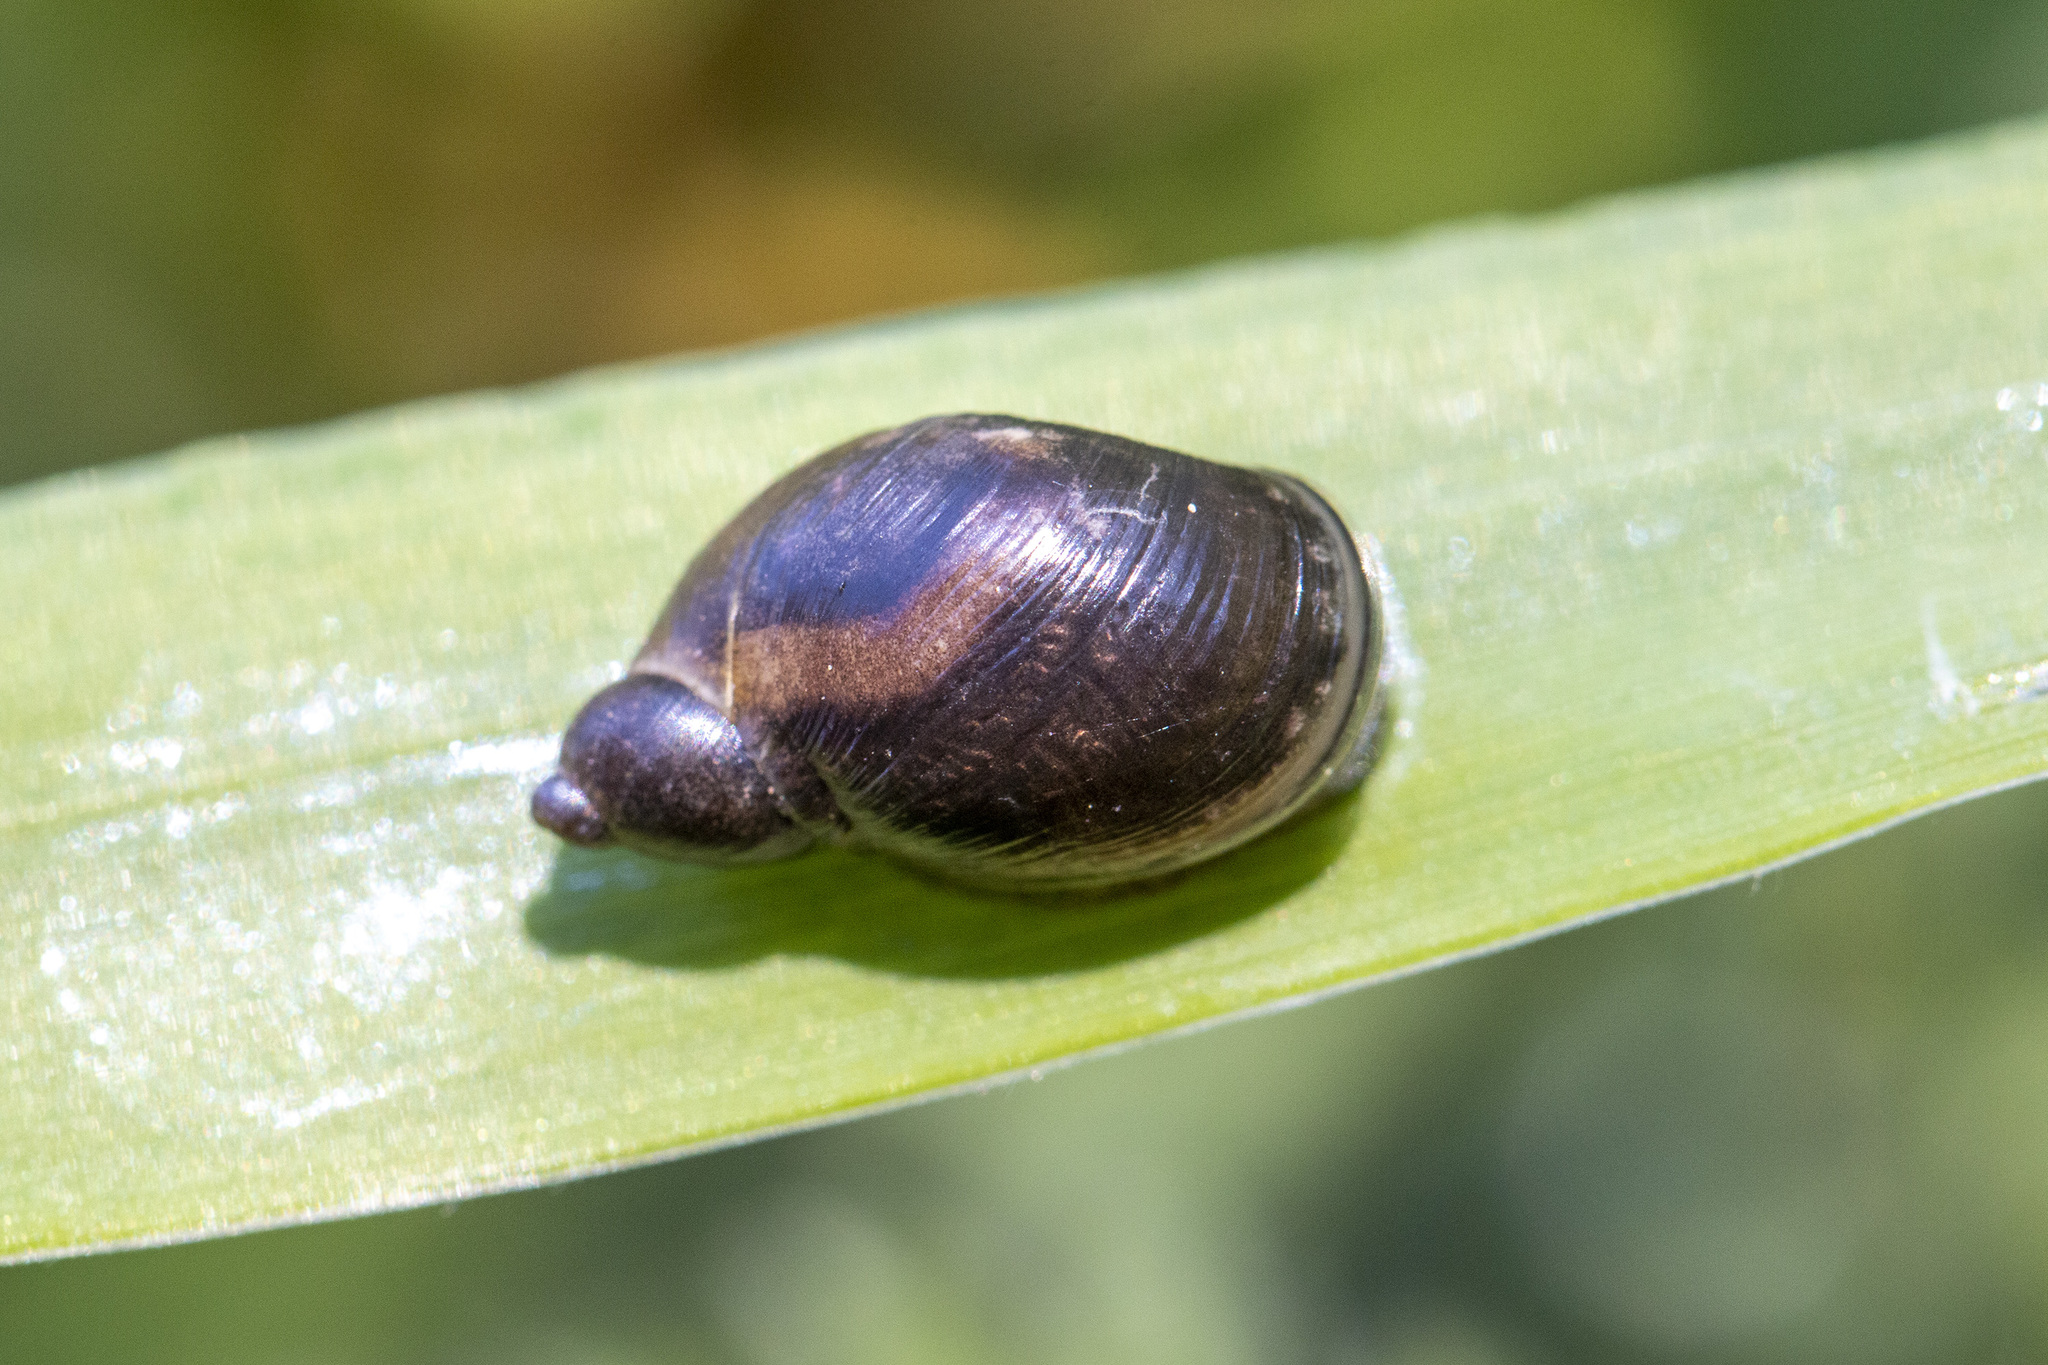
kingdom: Animalia
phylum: Mollusca
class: Gastropoda
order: Stylommatophora
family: Succineidae
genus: Succinea
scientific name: Succinea putris
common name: European ambersnail
